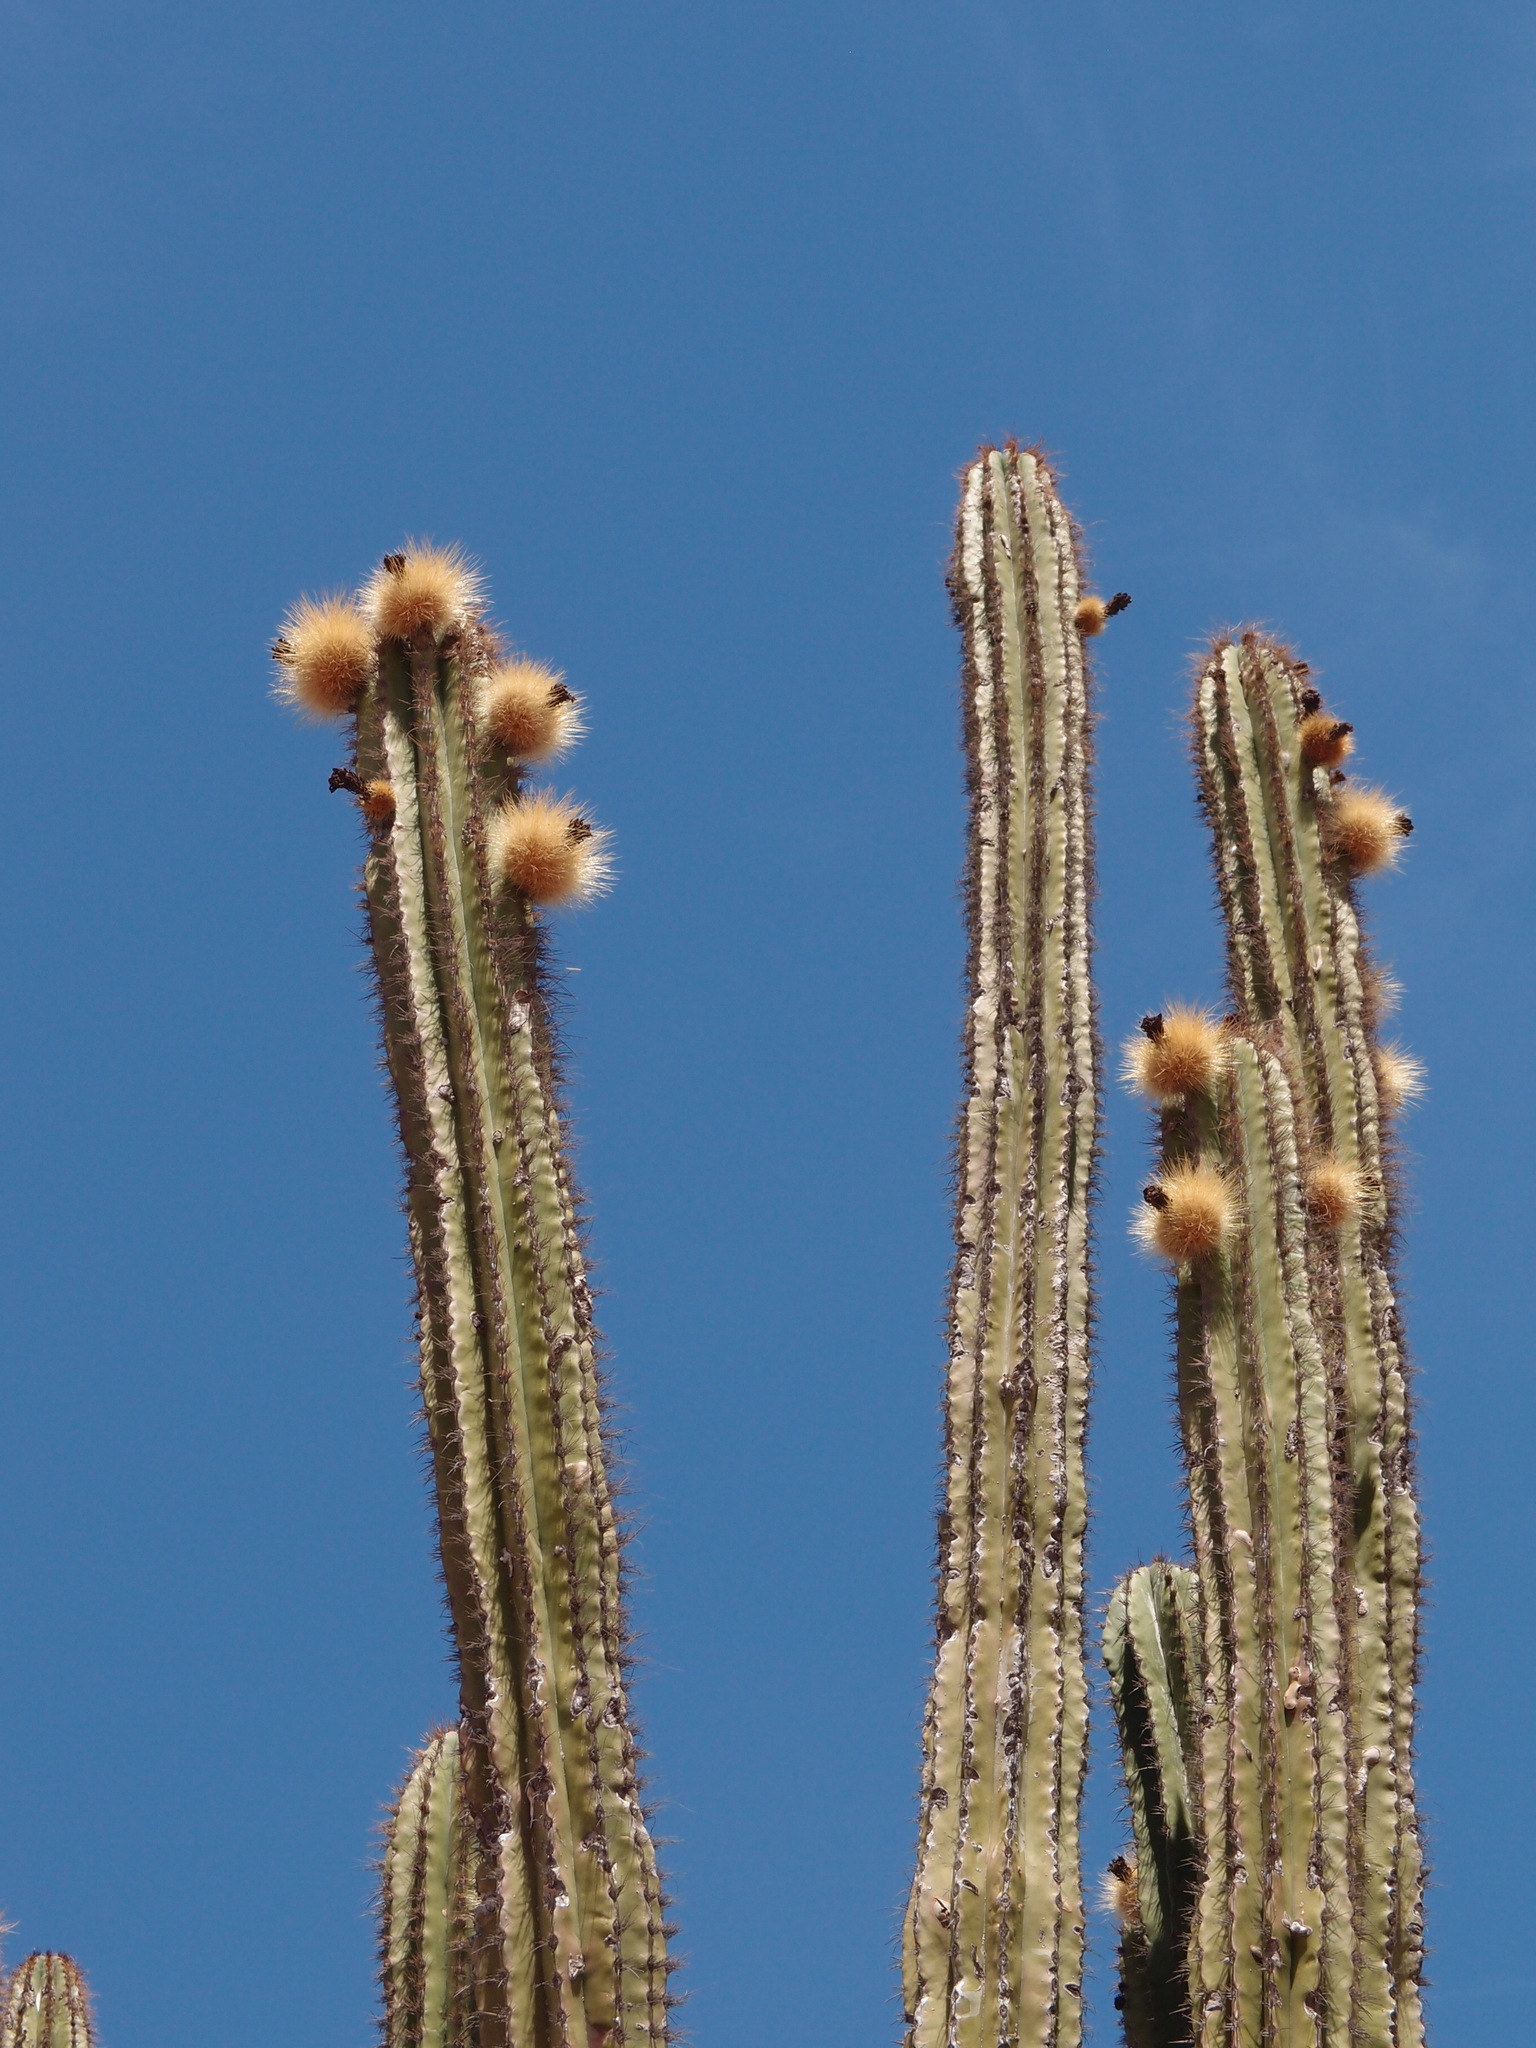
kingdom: Plantae
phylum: Tracheophyta
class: Magnoliopsida
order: Caryophyllales
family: Cactaceae
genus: Pachycereus
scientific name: Pachycereus pecten-aboriginum
